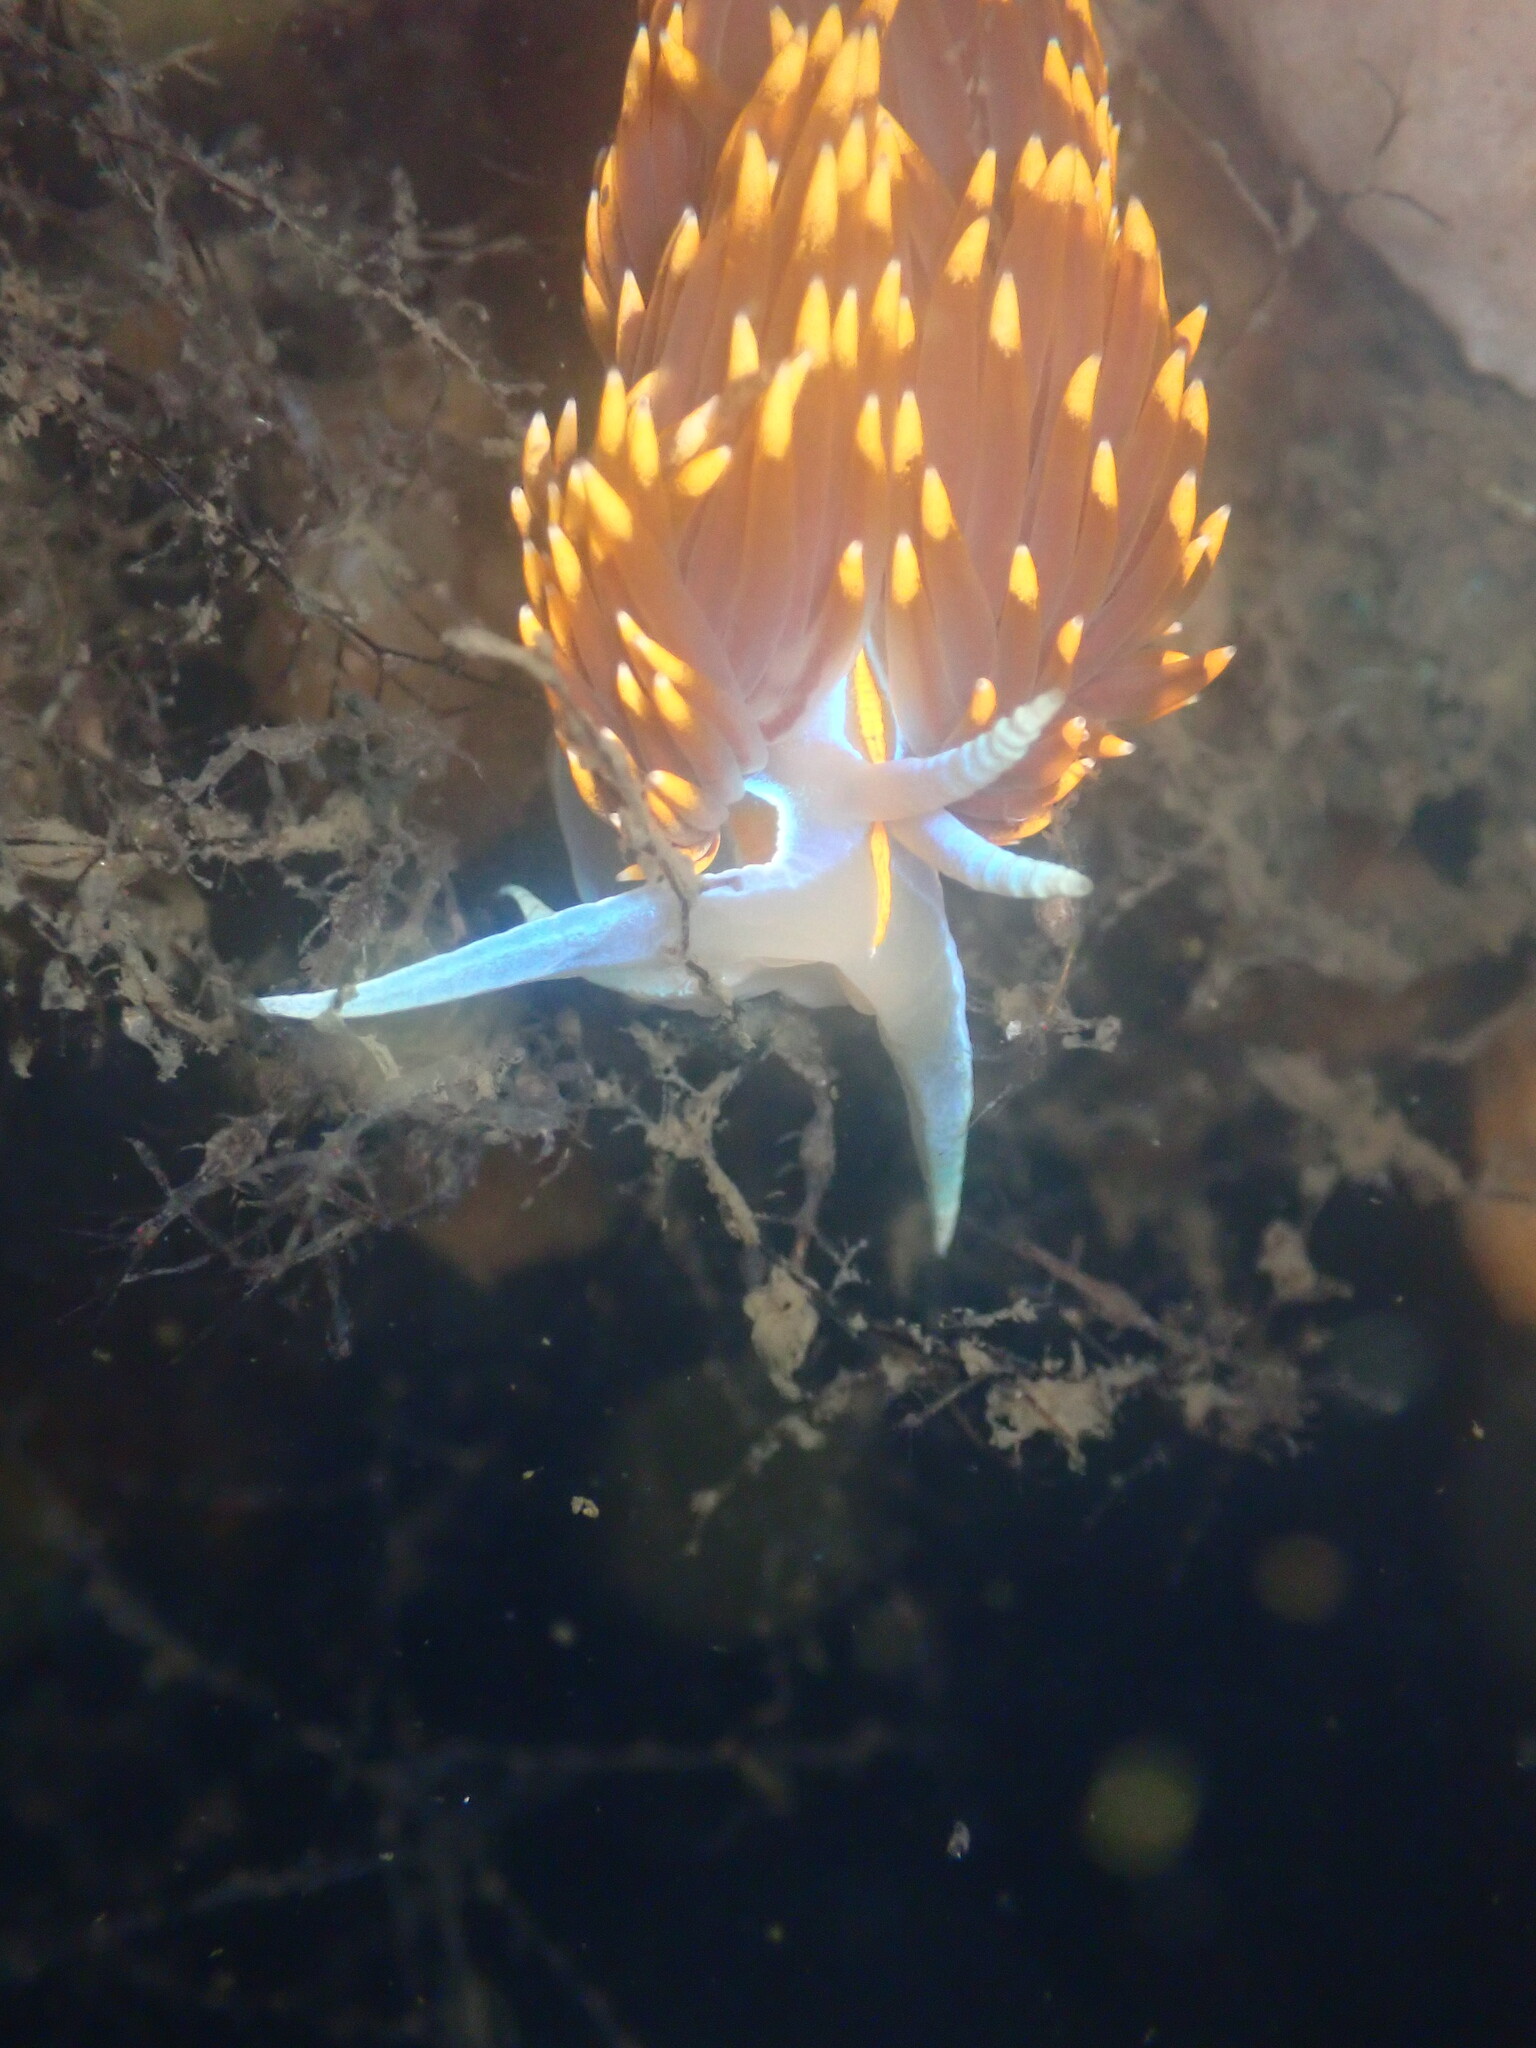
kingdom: Animalia
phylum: Mollusca
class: Gastropoda
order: Nudibranchia
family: Myrrhinidae
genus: Hermissenda
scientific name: Hermissenda opalescens
